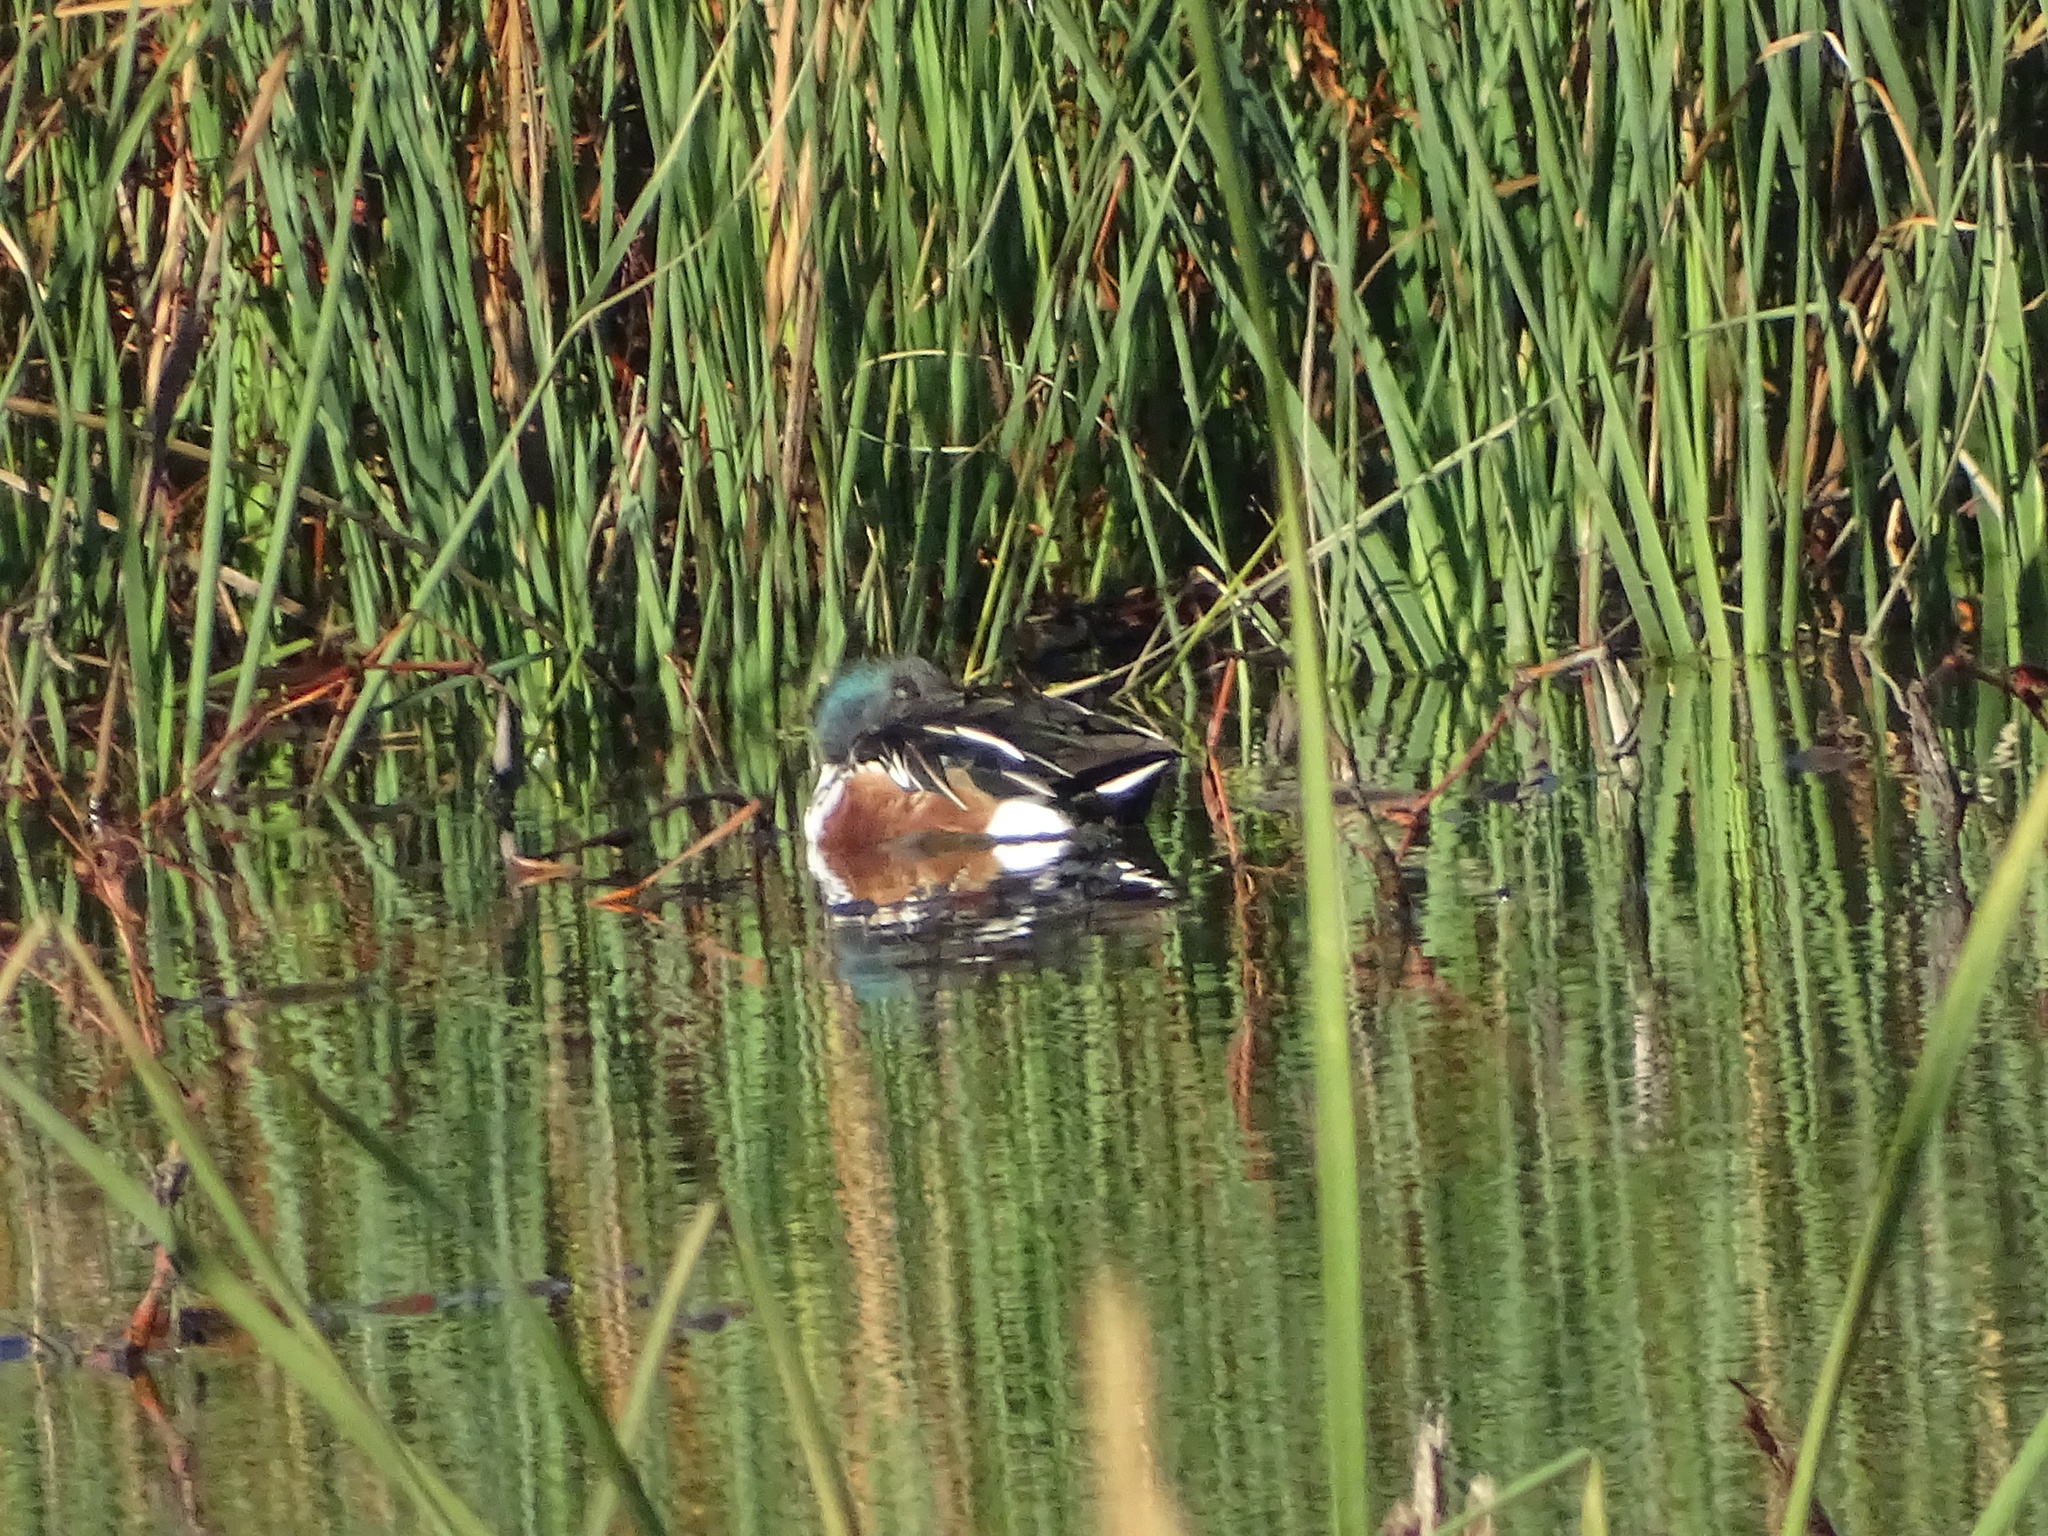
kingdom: Animalia
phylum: Chordata
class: Aves
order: Anseriformes
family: Anatidae
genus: Spatula
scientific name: Spatula clypeata
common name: Northern shoveler
